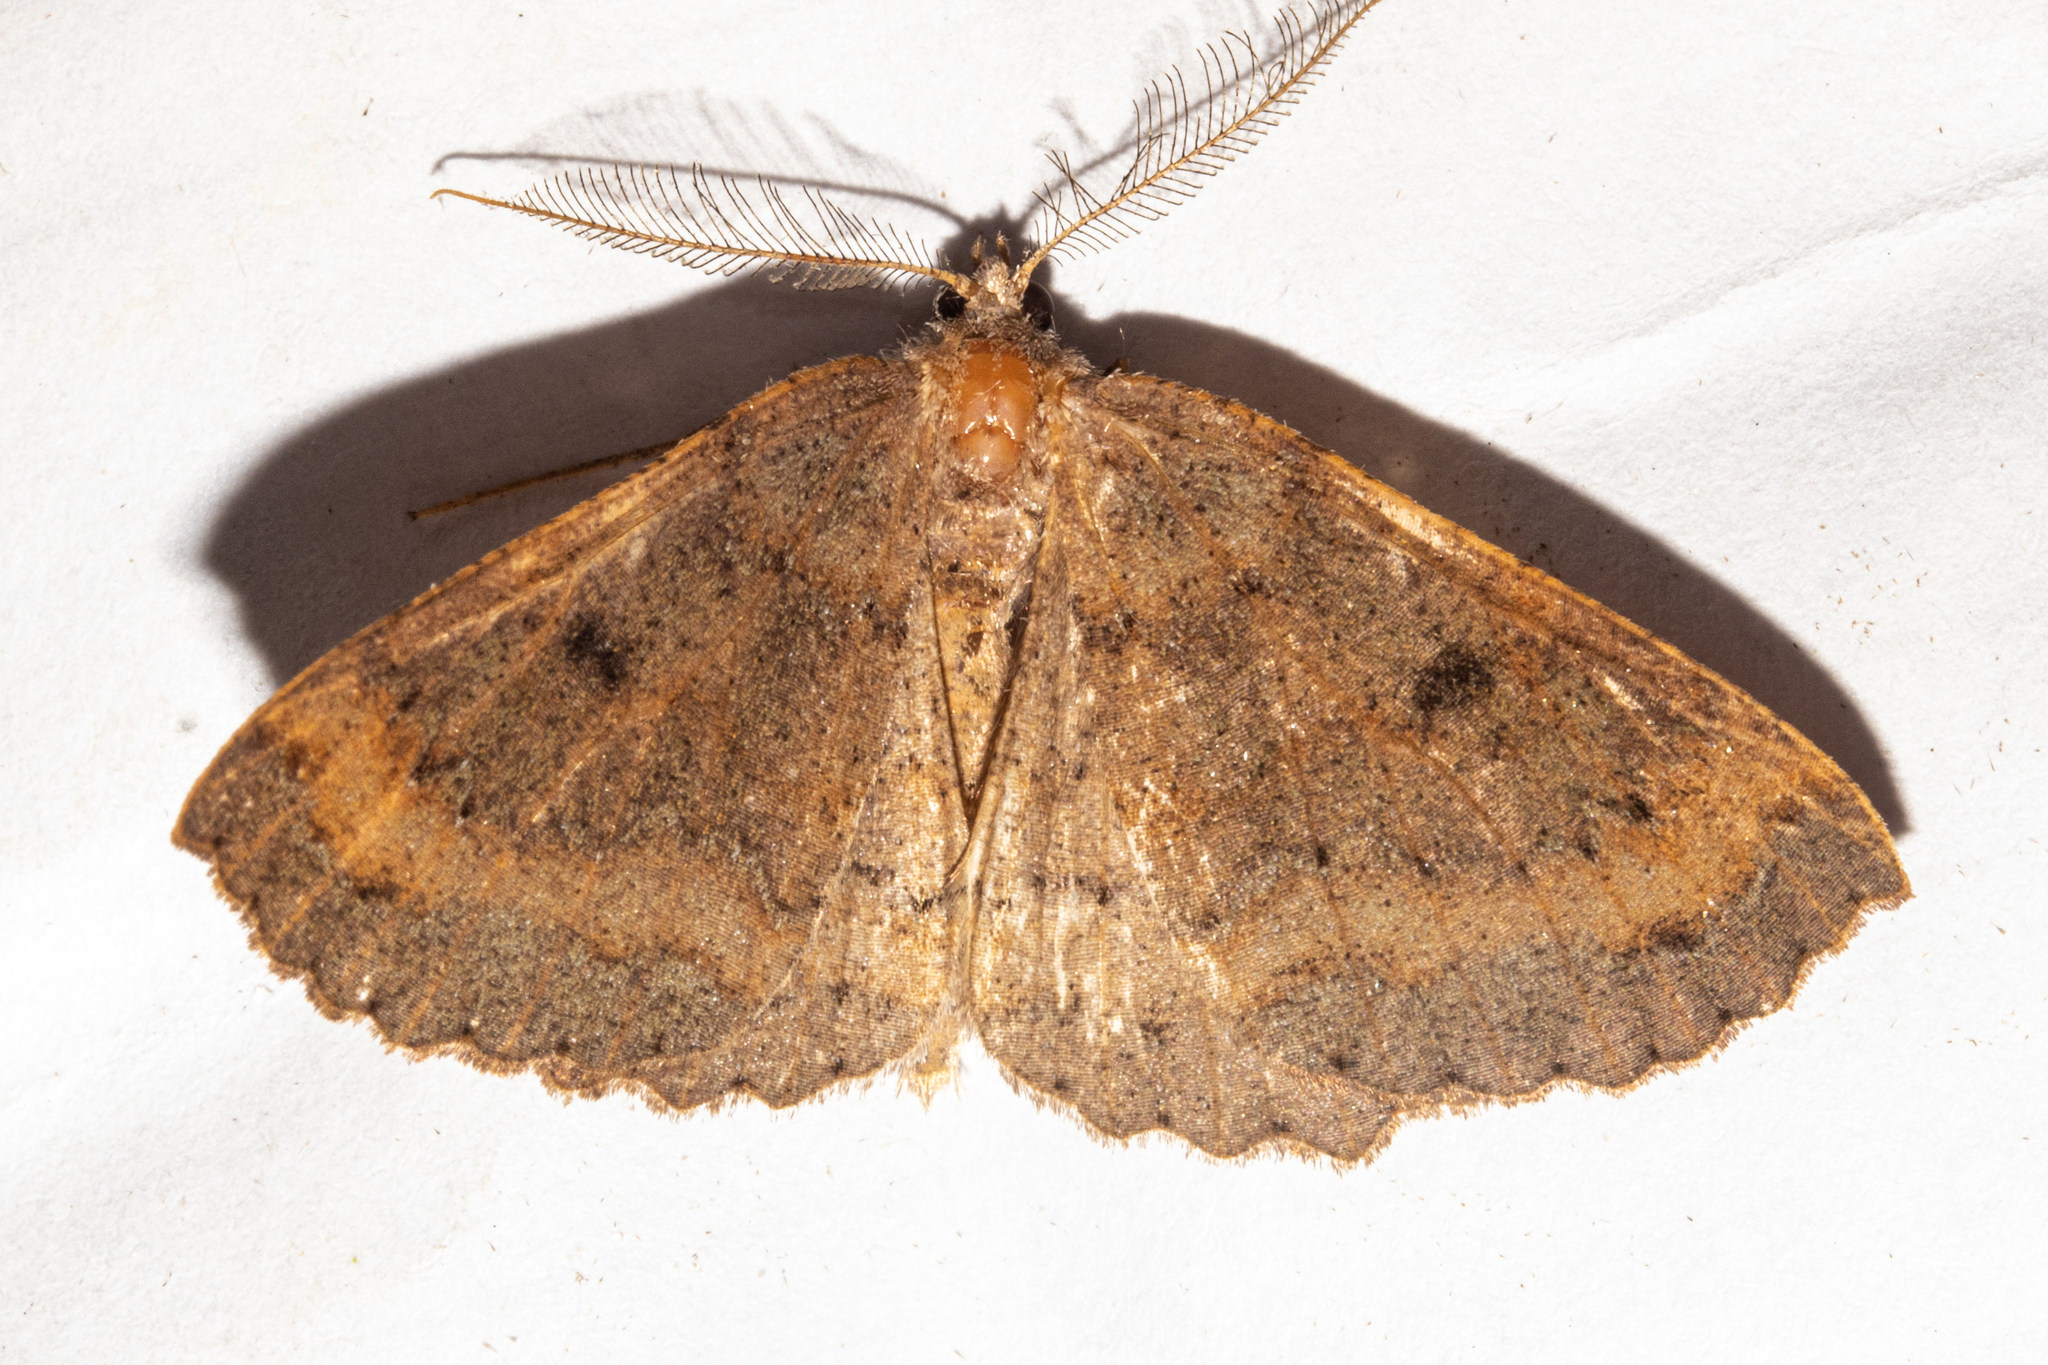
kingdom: Animalia
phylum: Arthropoda
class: Insecta
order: Lepidoptera
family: Geometridae
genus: Cleora
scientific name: Cleora scriptaria
